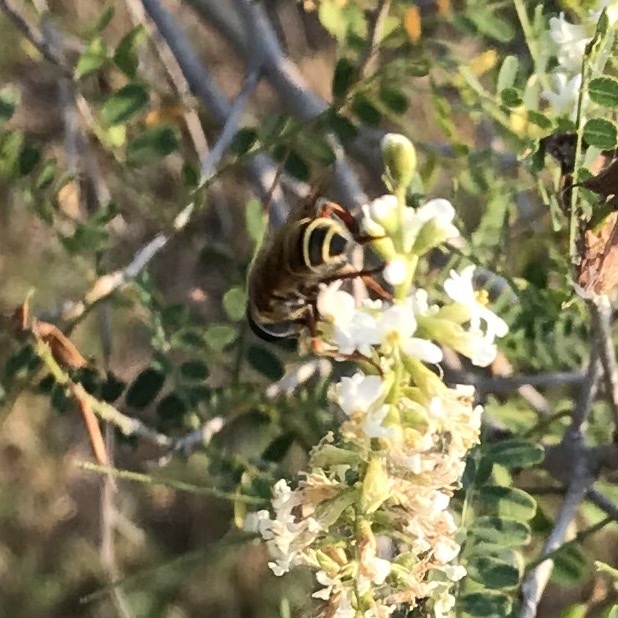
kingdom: Animalia
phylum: Arthropoda
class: Insecta
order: Diptera
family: Syrphidae
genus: Palpada
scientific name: Palpada vinetorum
